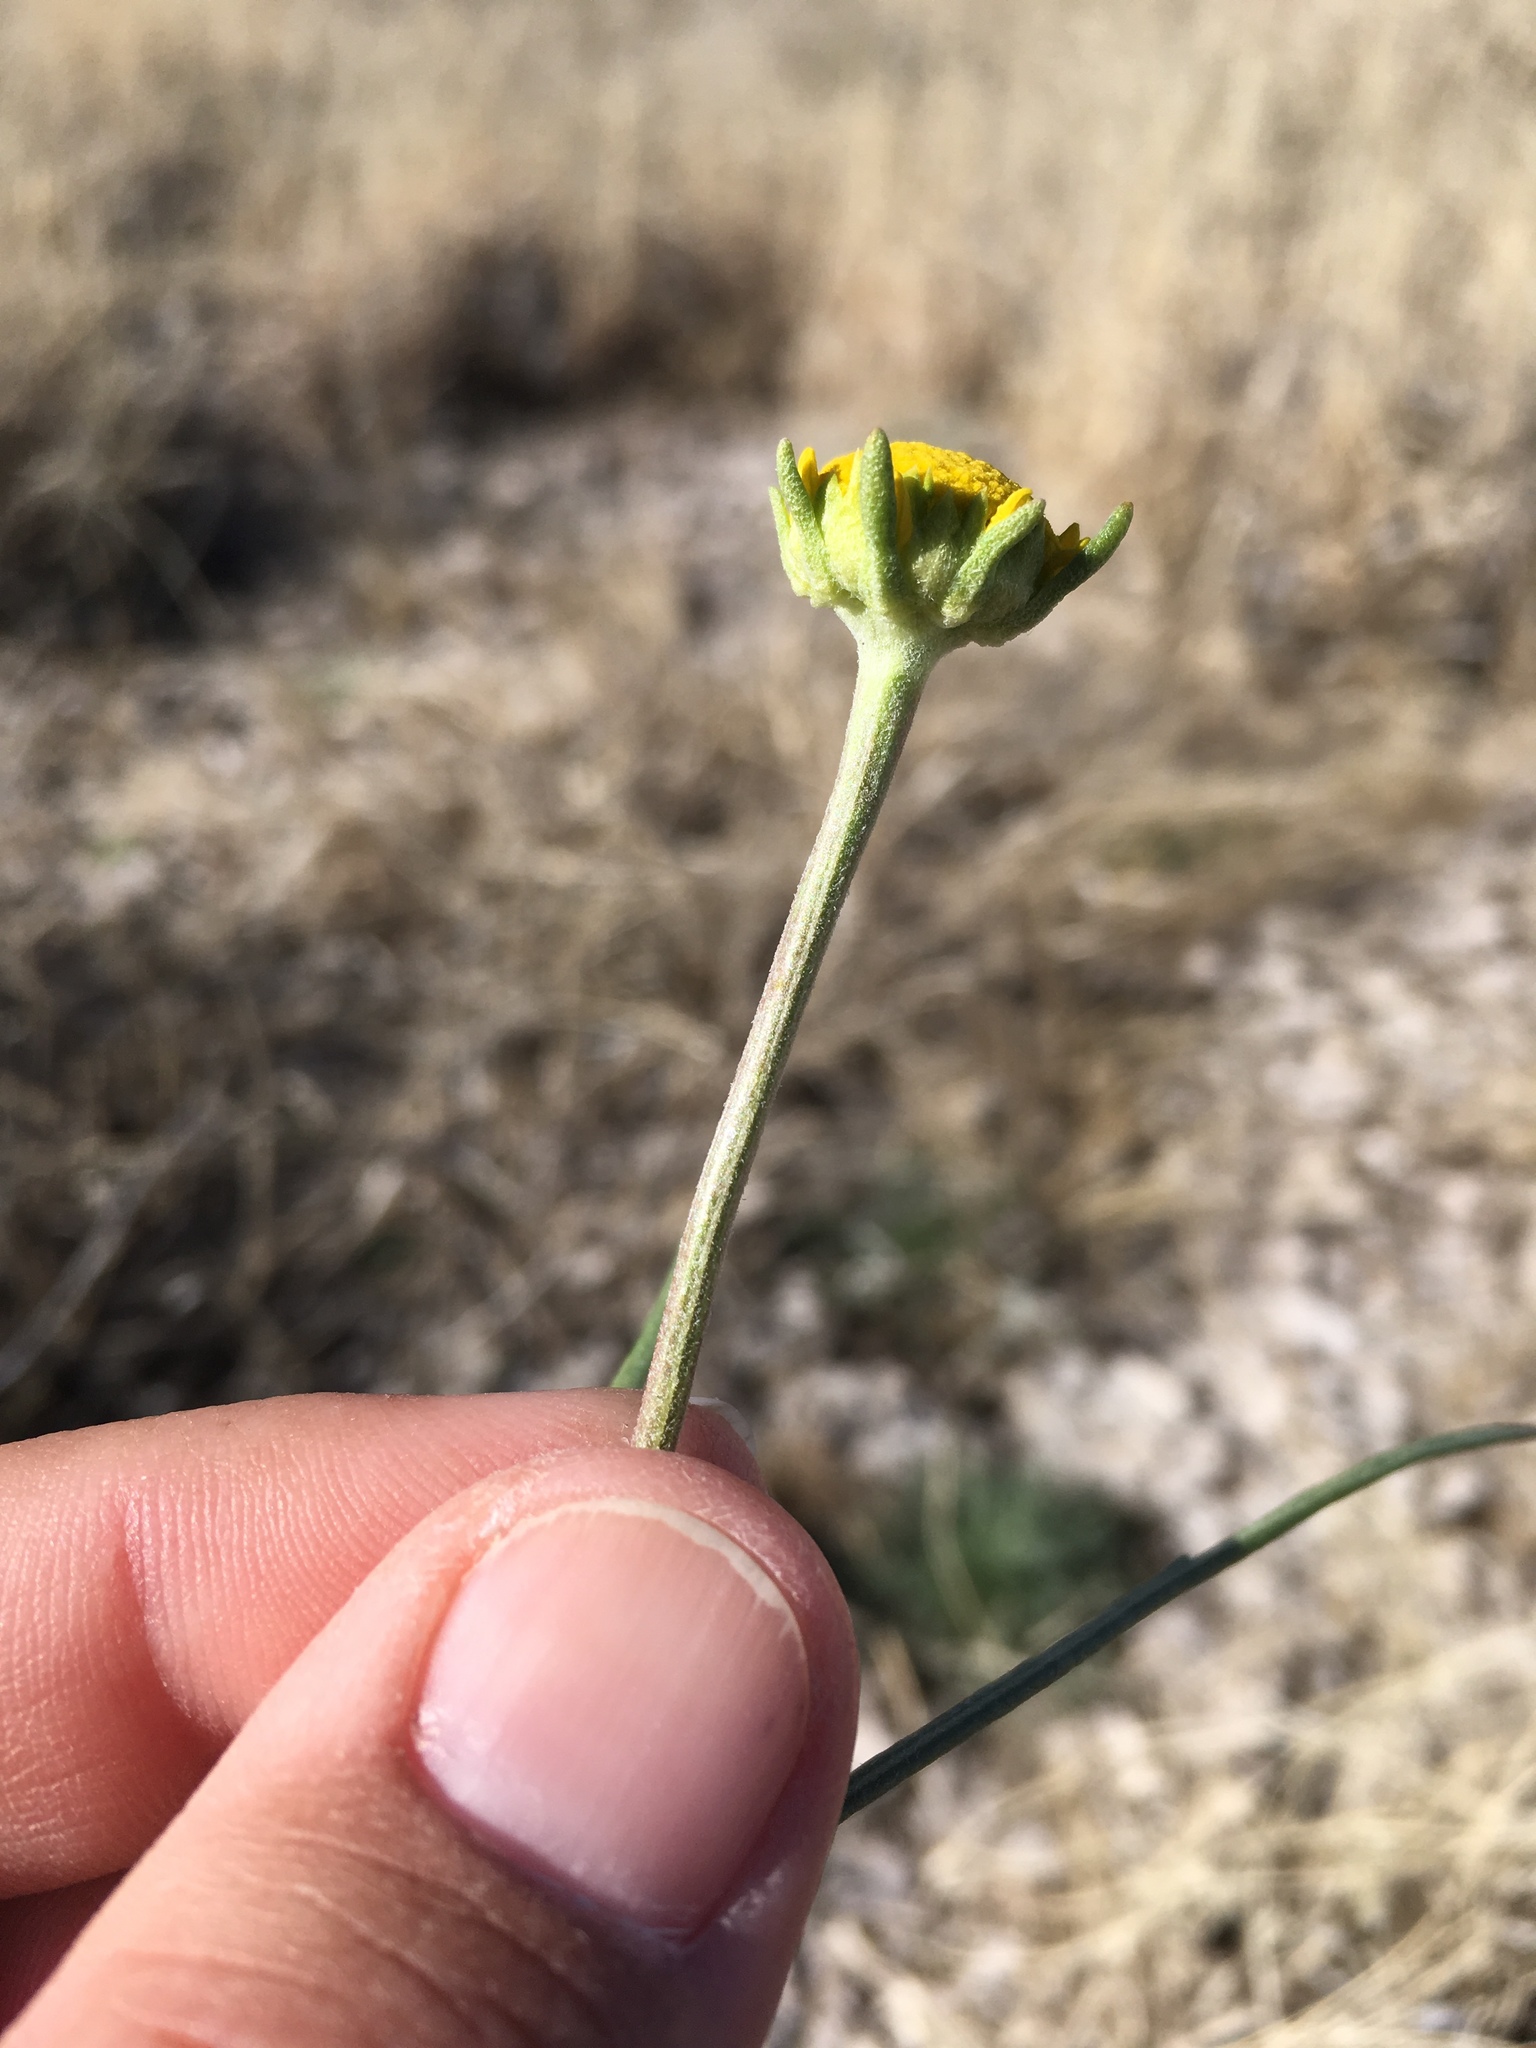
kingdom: Plantae
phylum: Tracheophyta
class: Magnoliopsida
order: Asterales
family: Asteraceae
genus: Hymenoxys
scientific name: Hymenoxys odorata
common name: Bitter rubberweed
